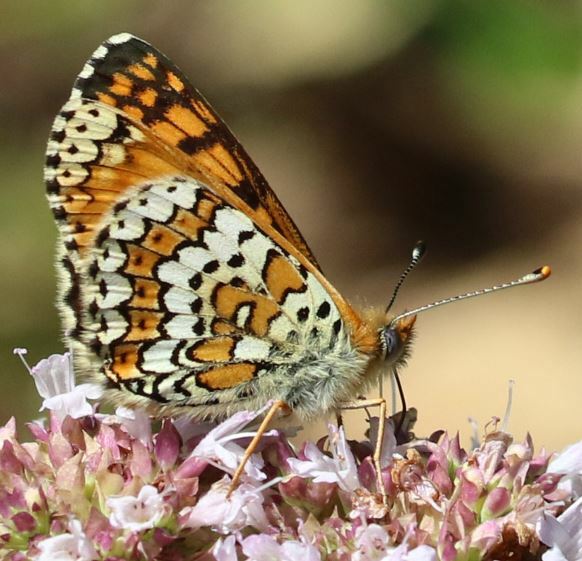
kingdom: Animalia
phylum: Arthropoda
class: Insecta
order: Lepidoptera
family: Nymphalidae
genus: Melitaea
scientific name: Melitaea cinxia
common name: Glanville fritillary
